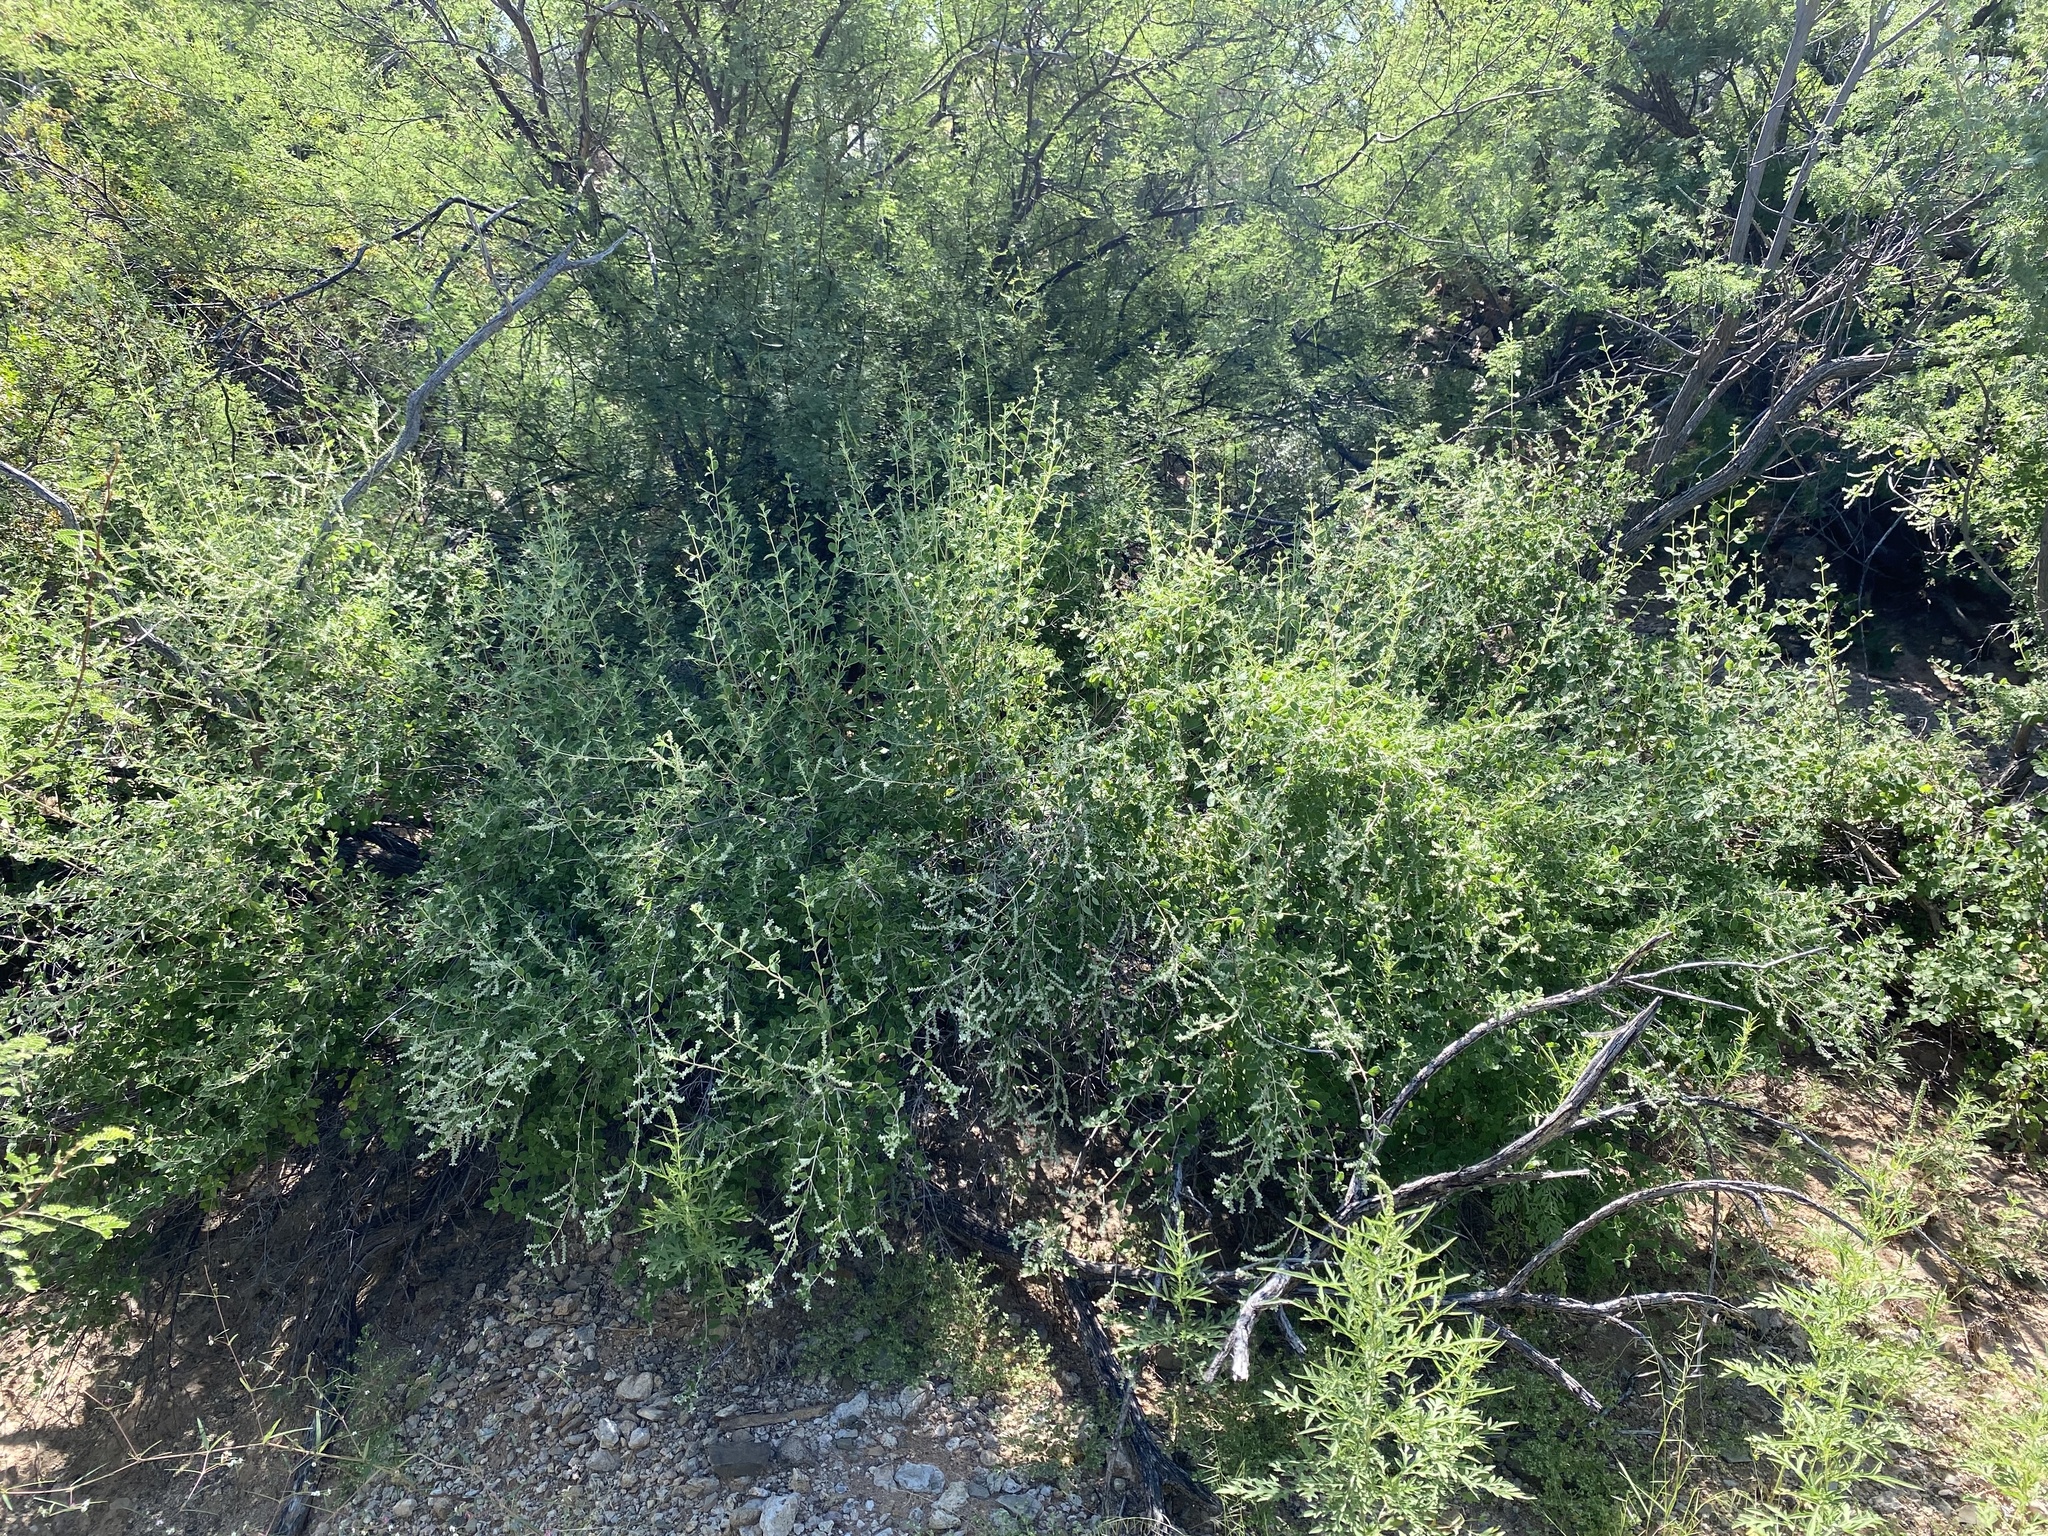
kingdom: Plantae
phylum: Tracheophyta
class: Magnoliopsida
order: Lamiales
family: Verbenaceae
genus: Aloysia
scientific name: Aloysia wrightii
